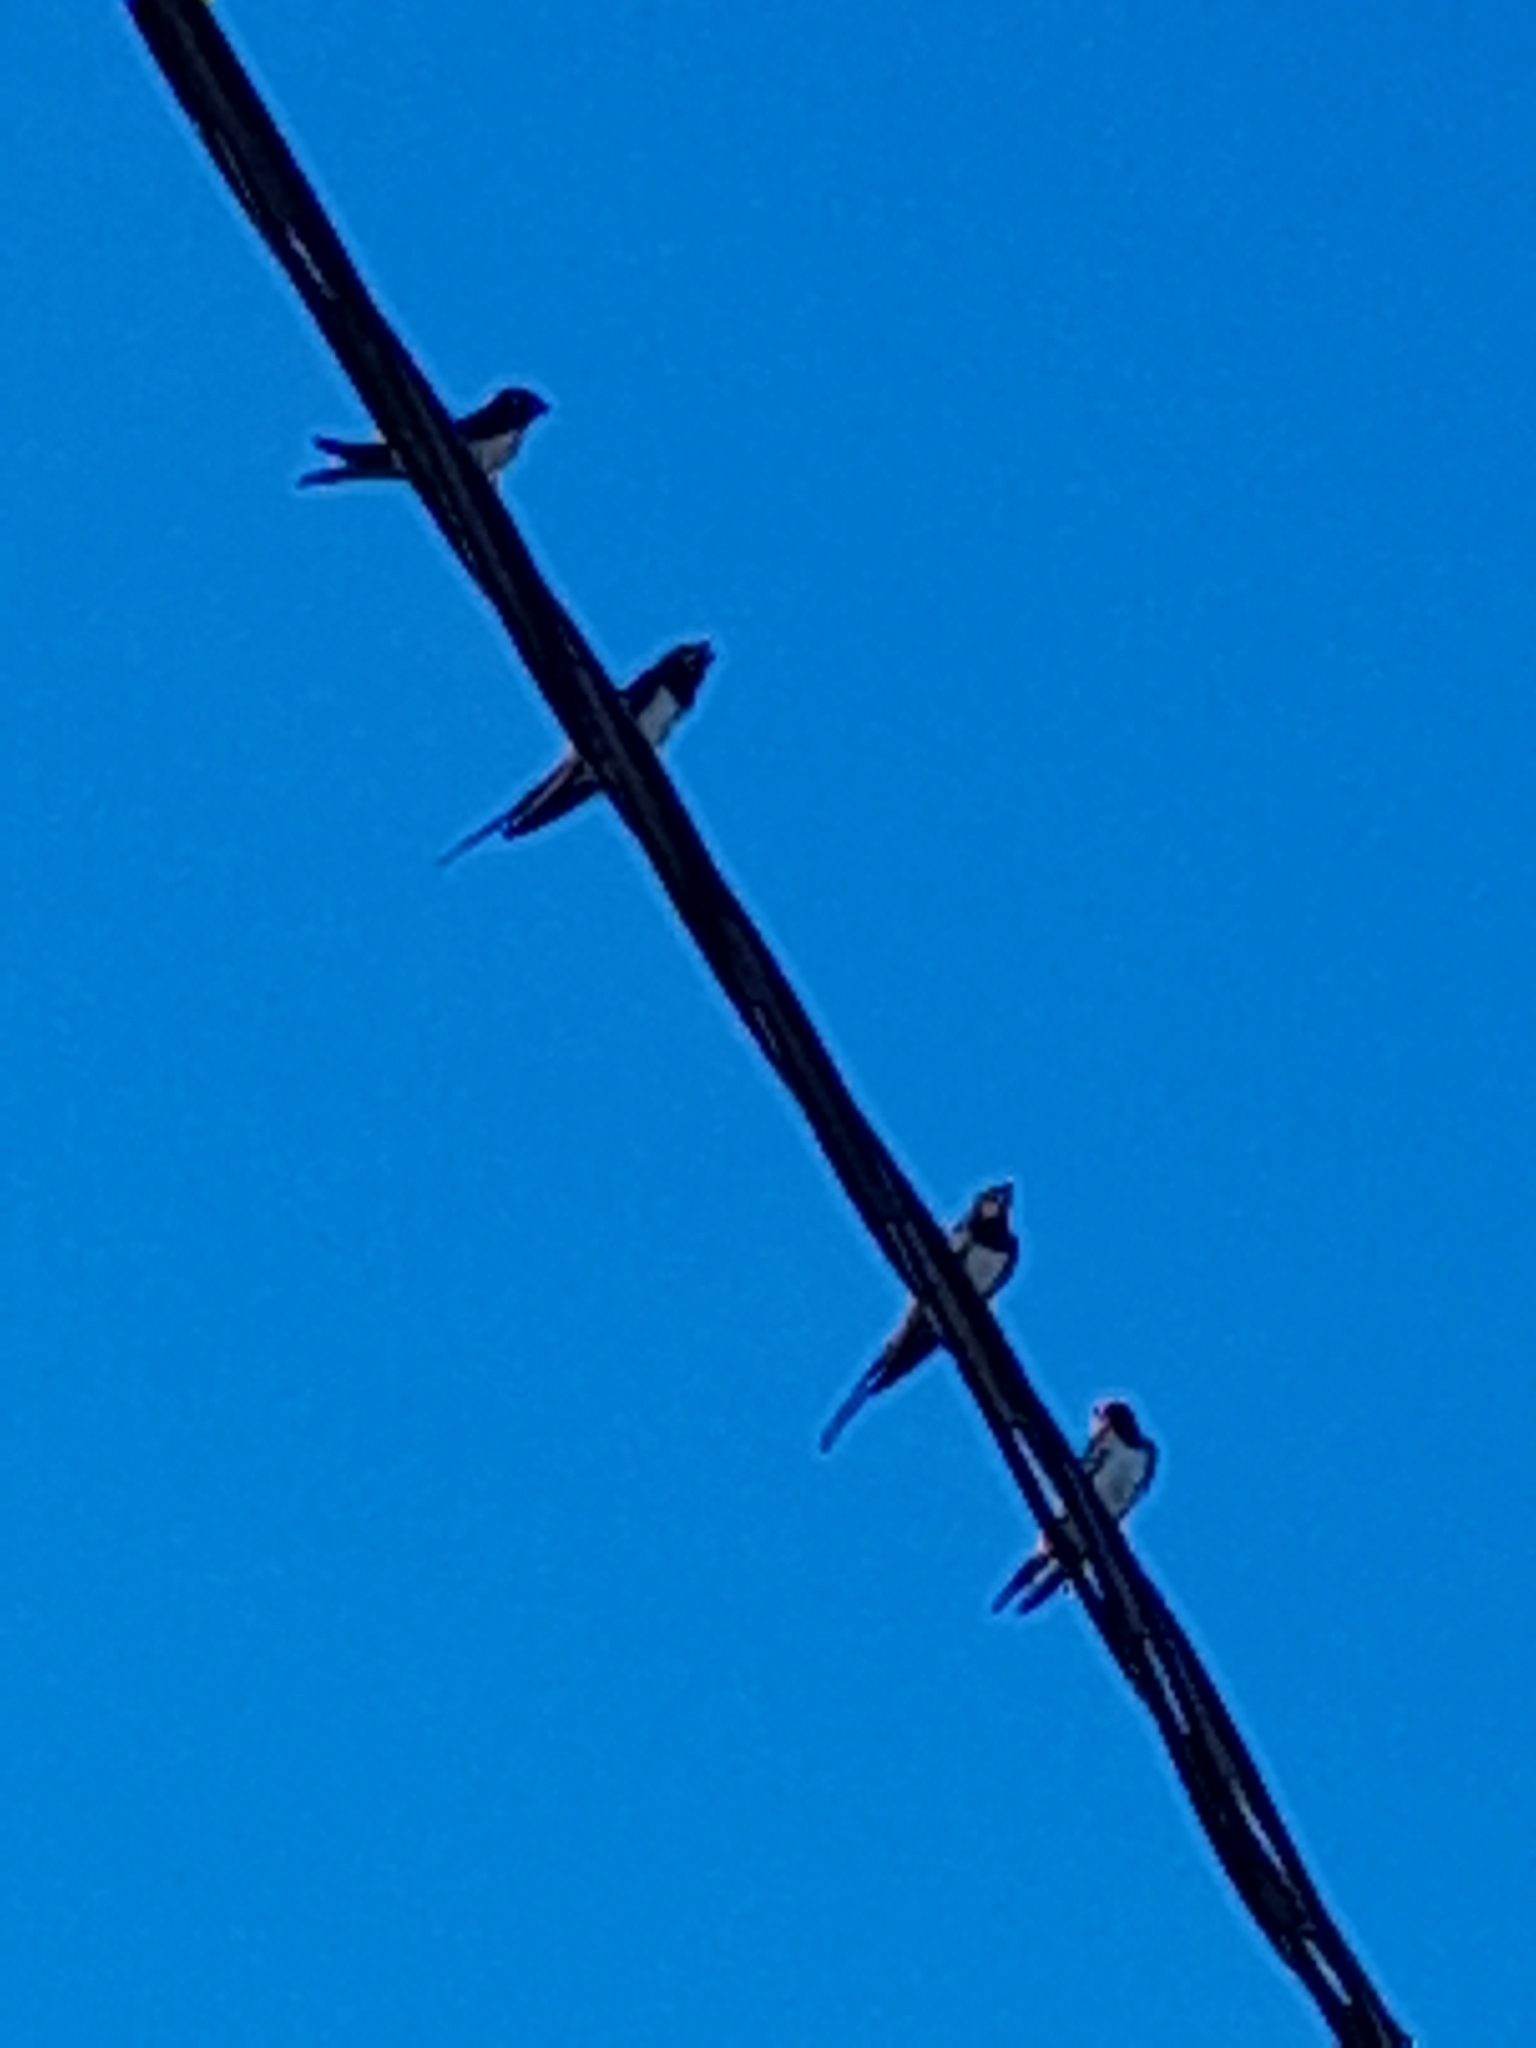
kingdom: Animalia
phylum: Chordata
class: Aves
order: Passeriformes
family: Hirundinidae
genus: Hirundo
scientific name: Hirundo rustica
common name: Barn swallow
